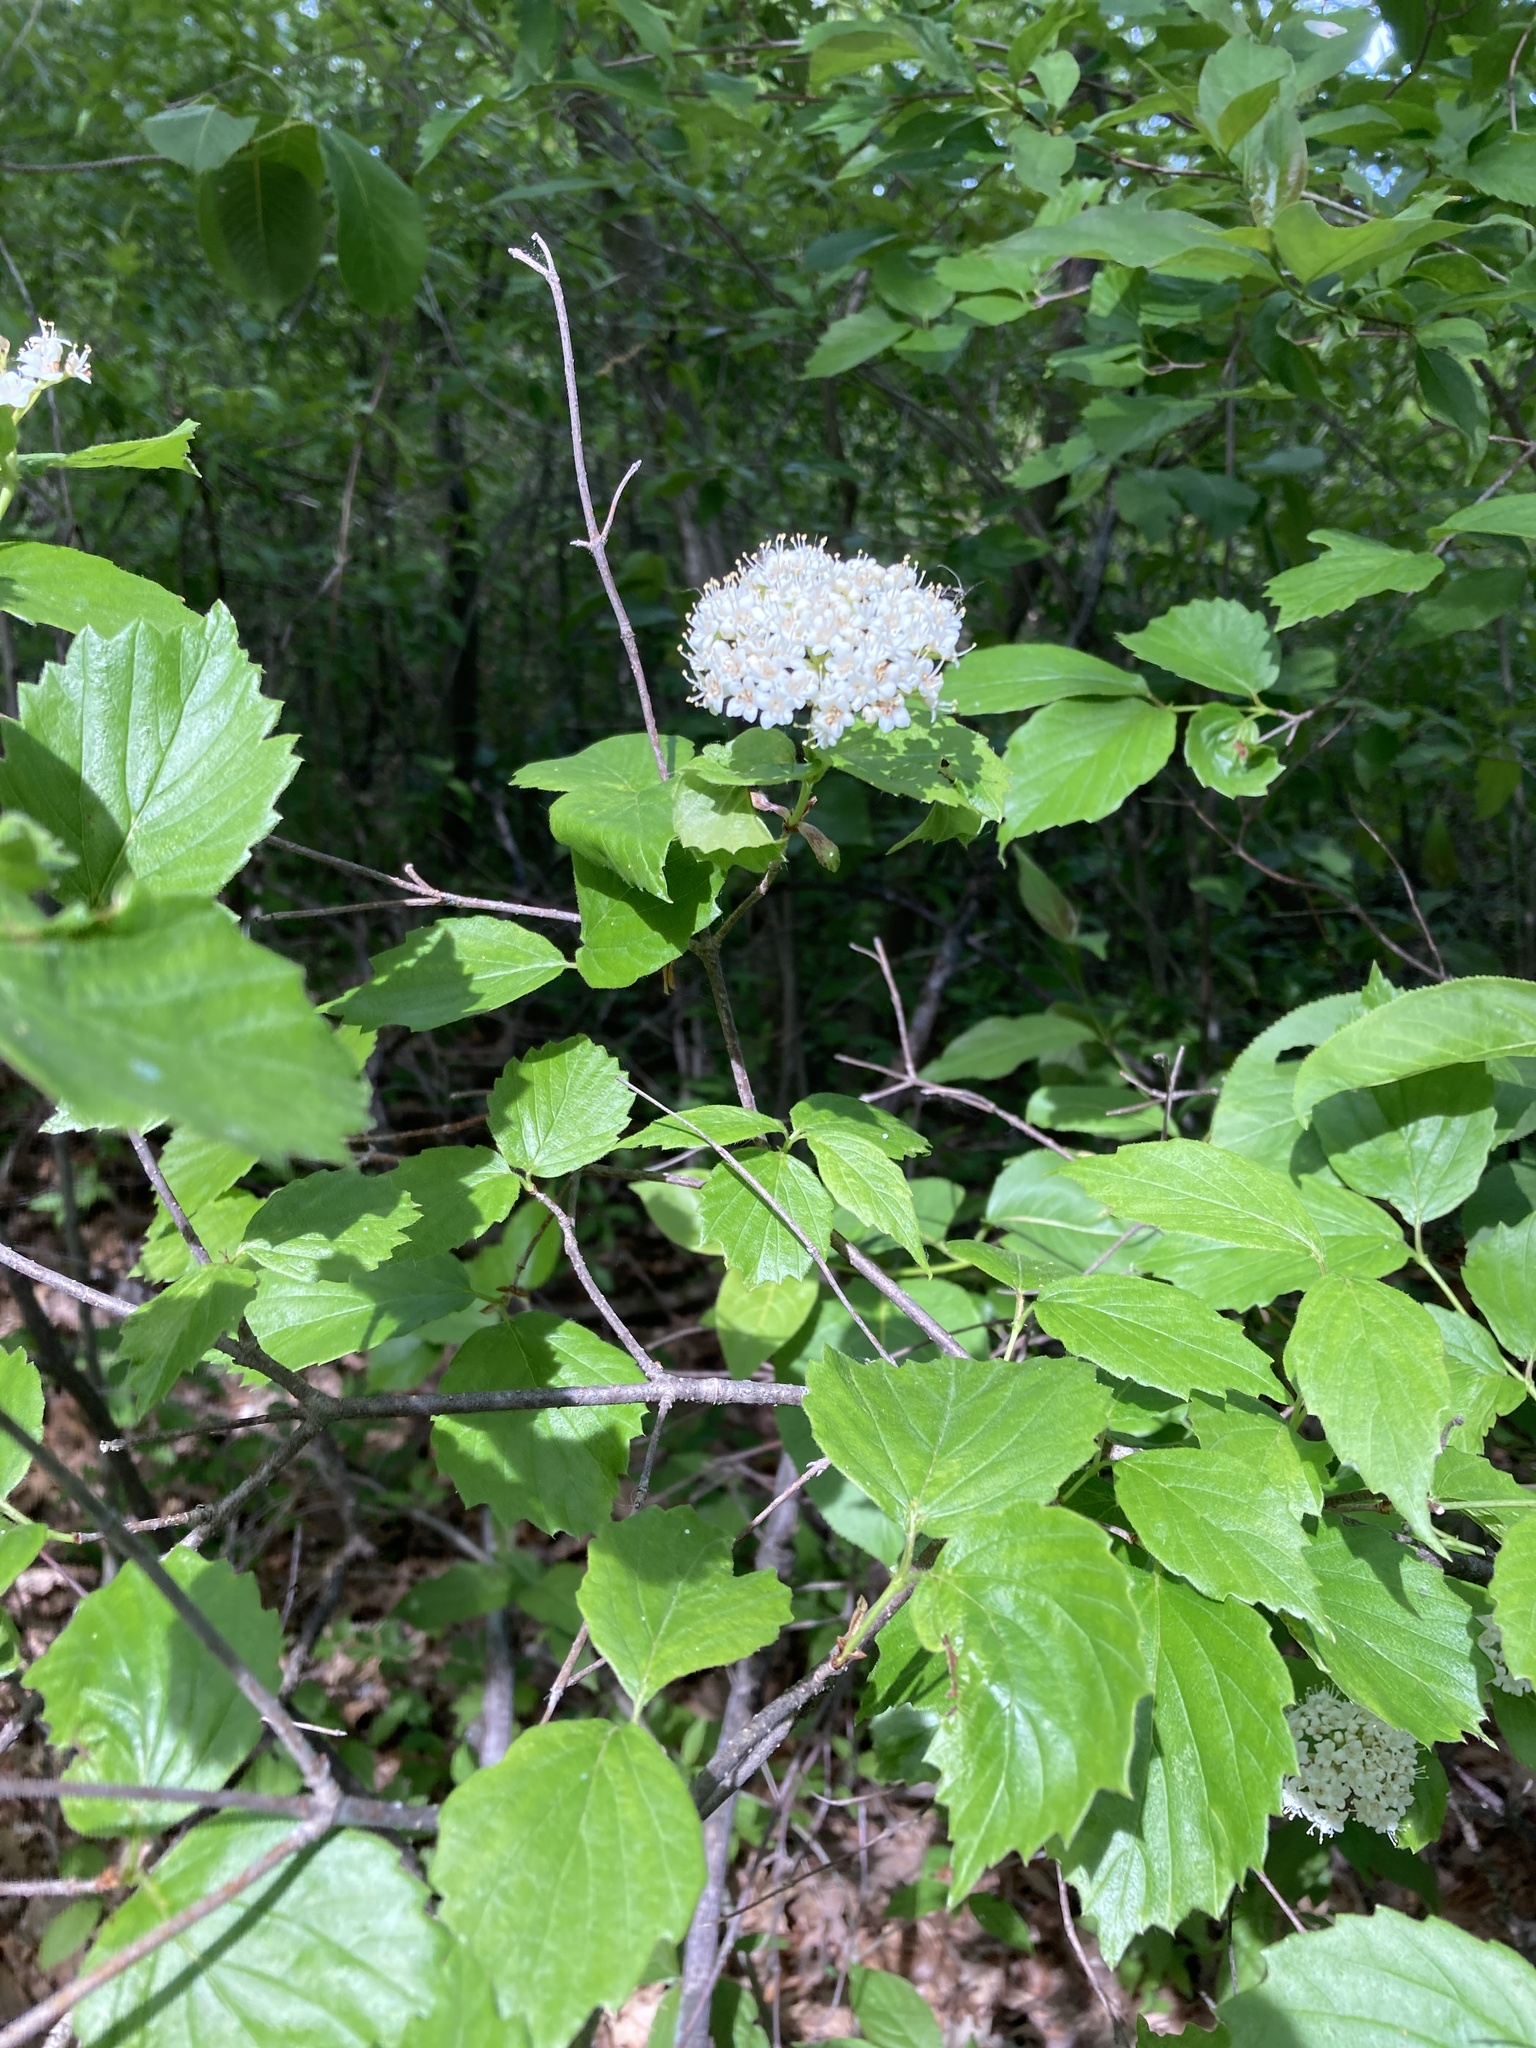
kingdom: Plantae
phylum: Tracheophyta
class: Magnoliopsida
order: Dipsacales
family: Viburnaceae
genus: Viburnum
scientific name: Viburnum rafinesqueanum
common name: Downy arrow-wood
